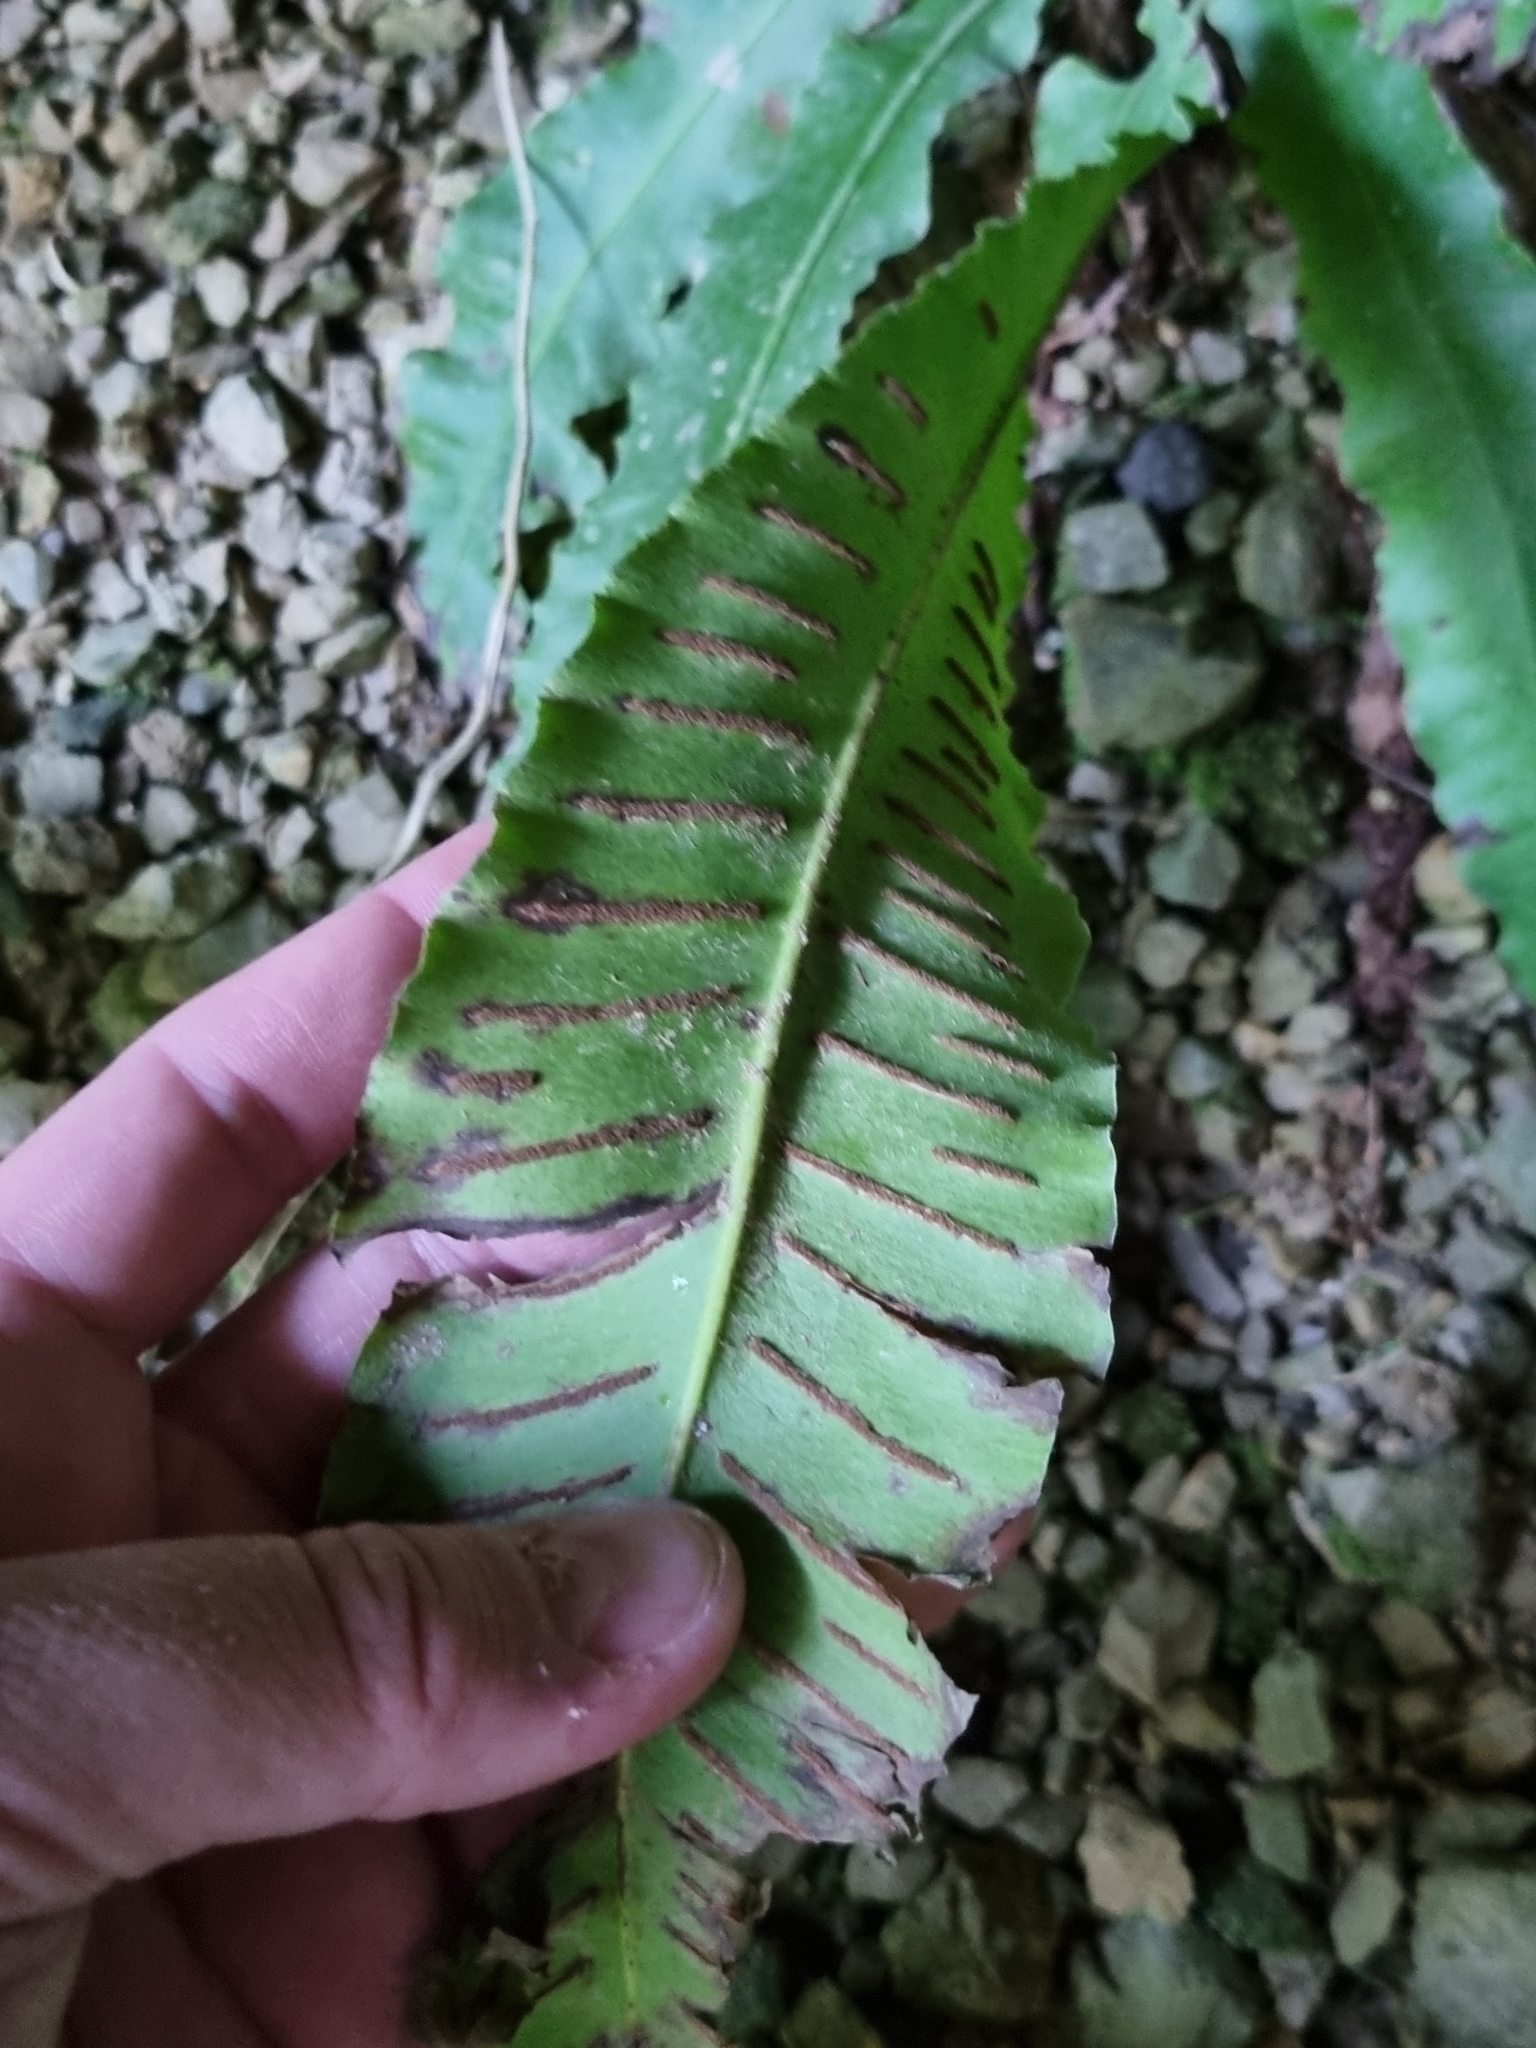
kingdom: Plantae
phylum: Tracheophyta
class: Polypodiopsida
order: Polypodiales
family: Aspleniaceae
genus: Asplenium
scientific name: Asplenium scolopendrium
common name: Hart's-tongue fern
